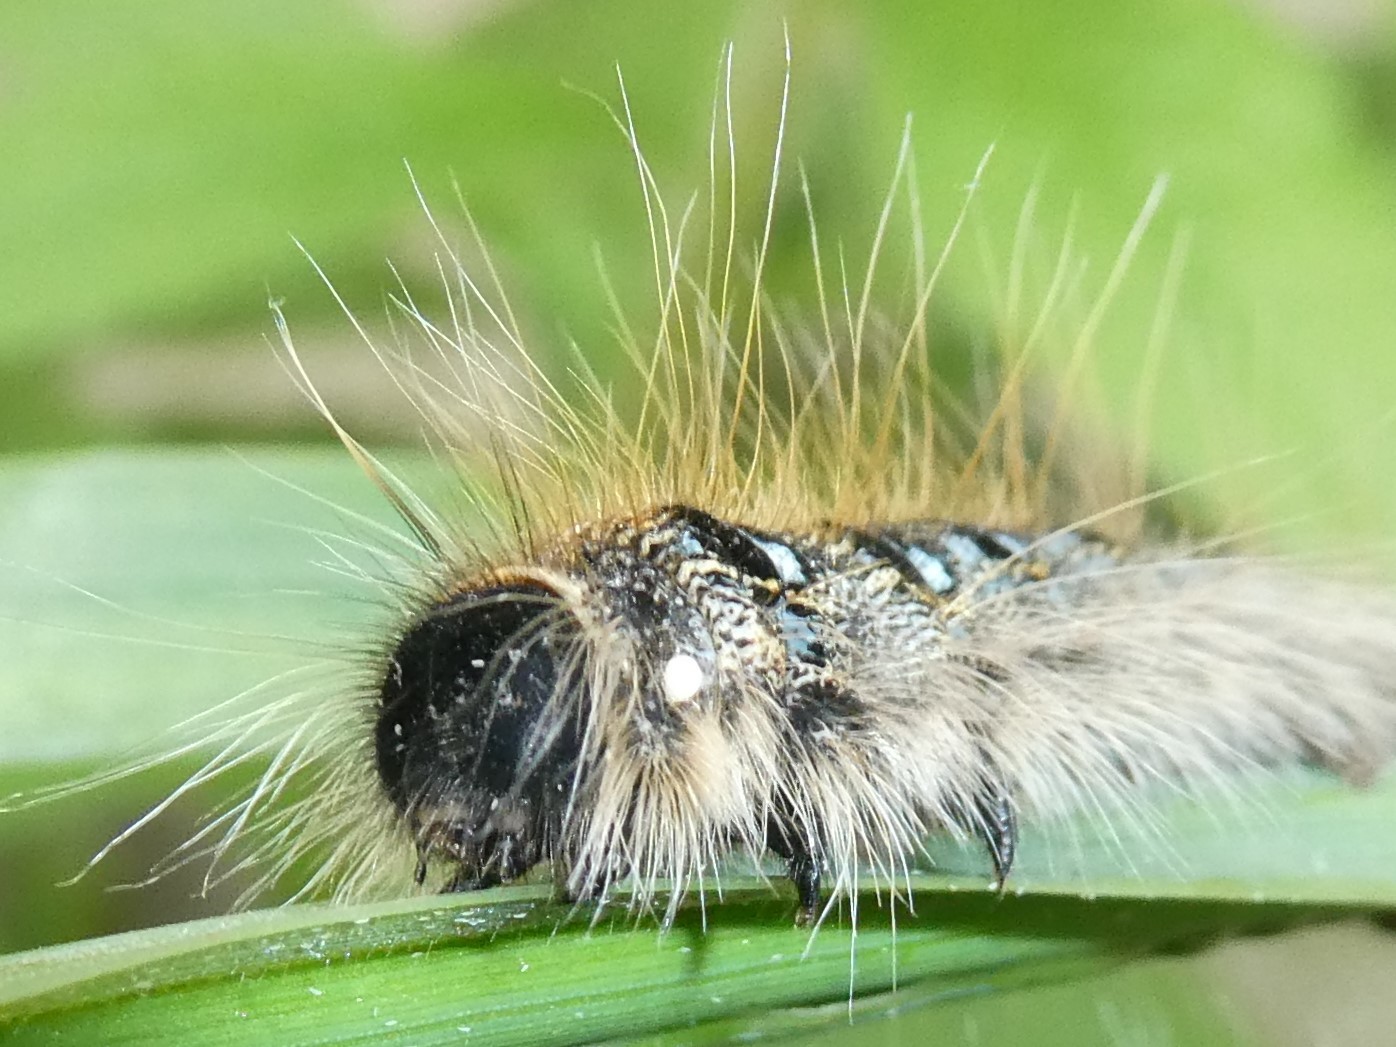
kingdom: Animalia
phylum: Arthropoda
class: Insecta
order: Lepidoptera
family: Lasiocampidae
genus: Malacosoma
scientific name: Malacosoma americana
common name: Eastern tent caterpillar moth
